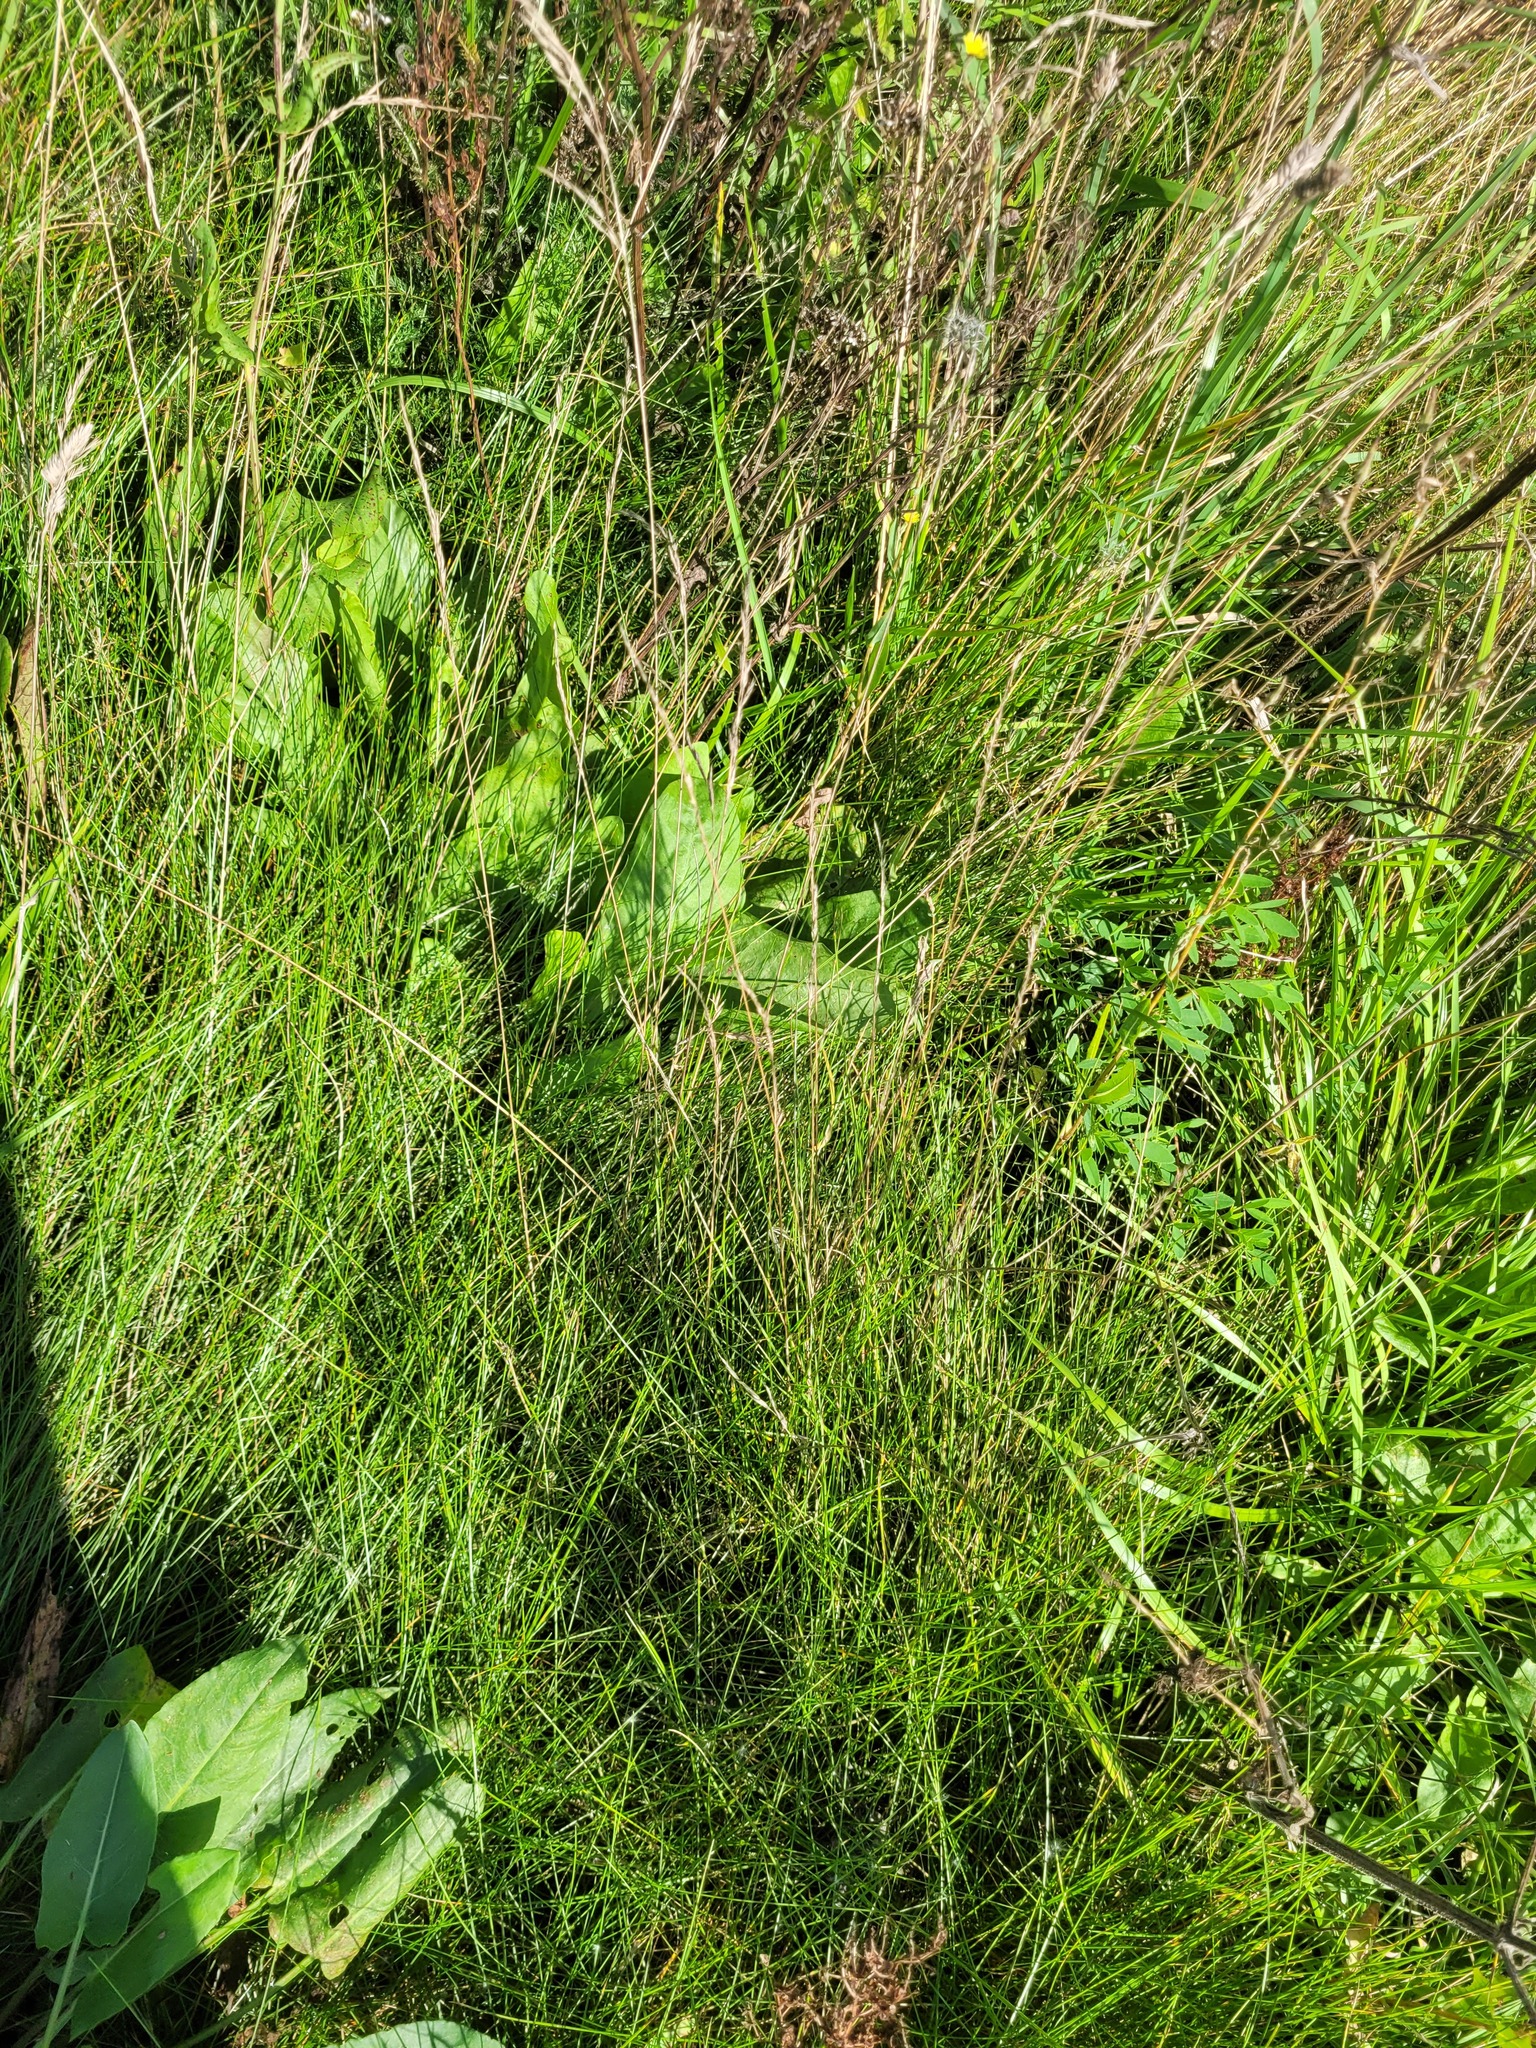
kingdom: Plantae
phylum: Tracheophyta
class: Liliopsida
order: Poales
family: Poaceae
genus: Festuca
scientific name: Festuca rubra
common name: Red fescue
